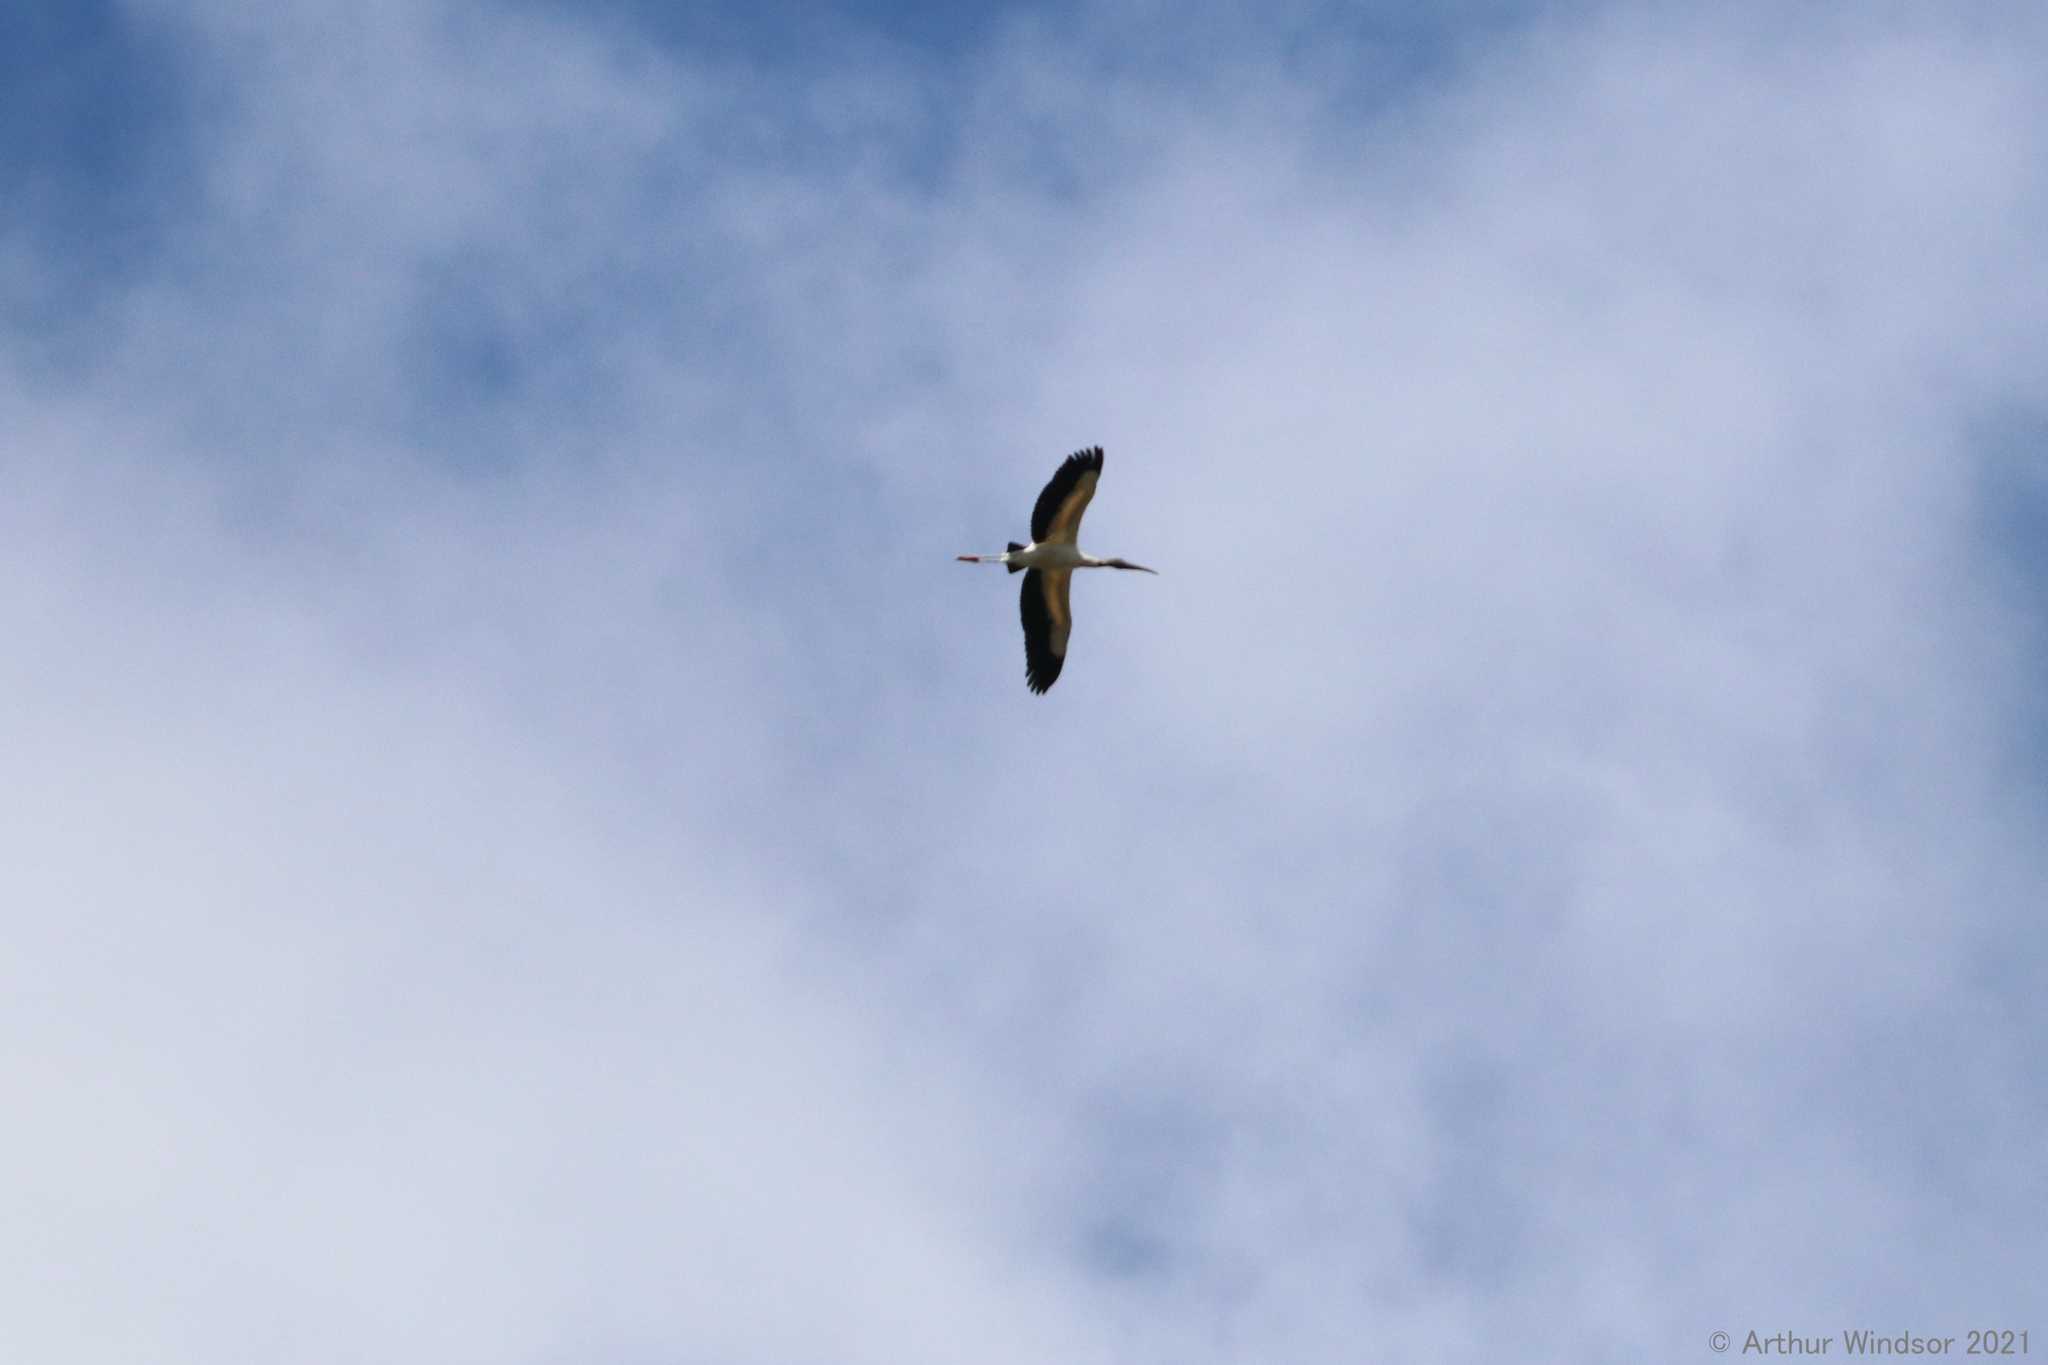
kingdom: Animalia
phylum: Chordata
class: Aves
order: Ciconiiformes
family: Ciconiidae
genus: Mycteria
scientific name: Mycteria americana
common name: Wood stork
